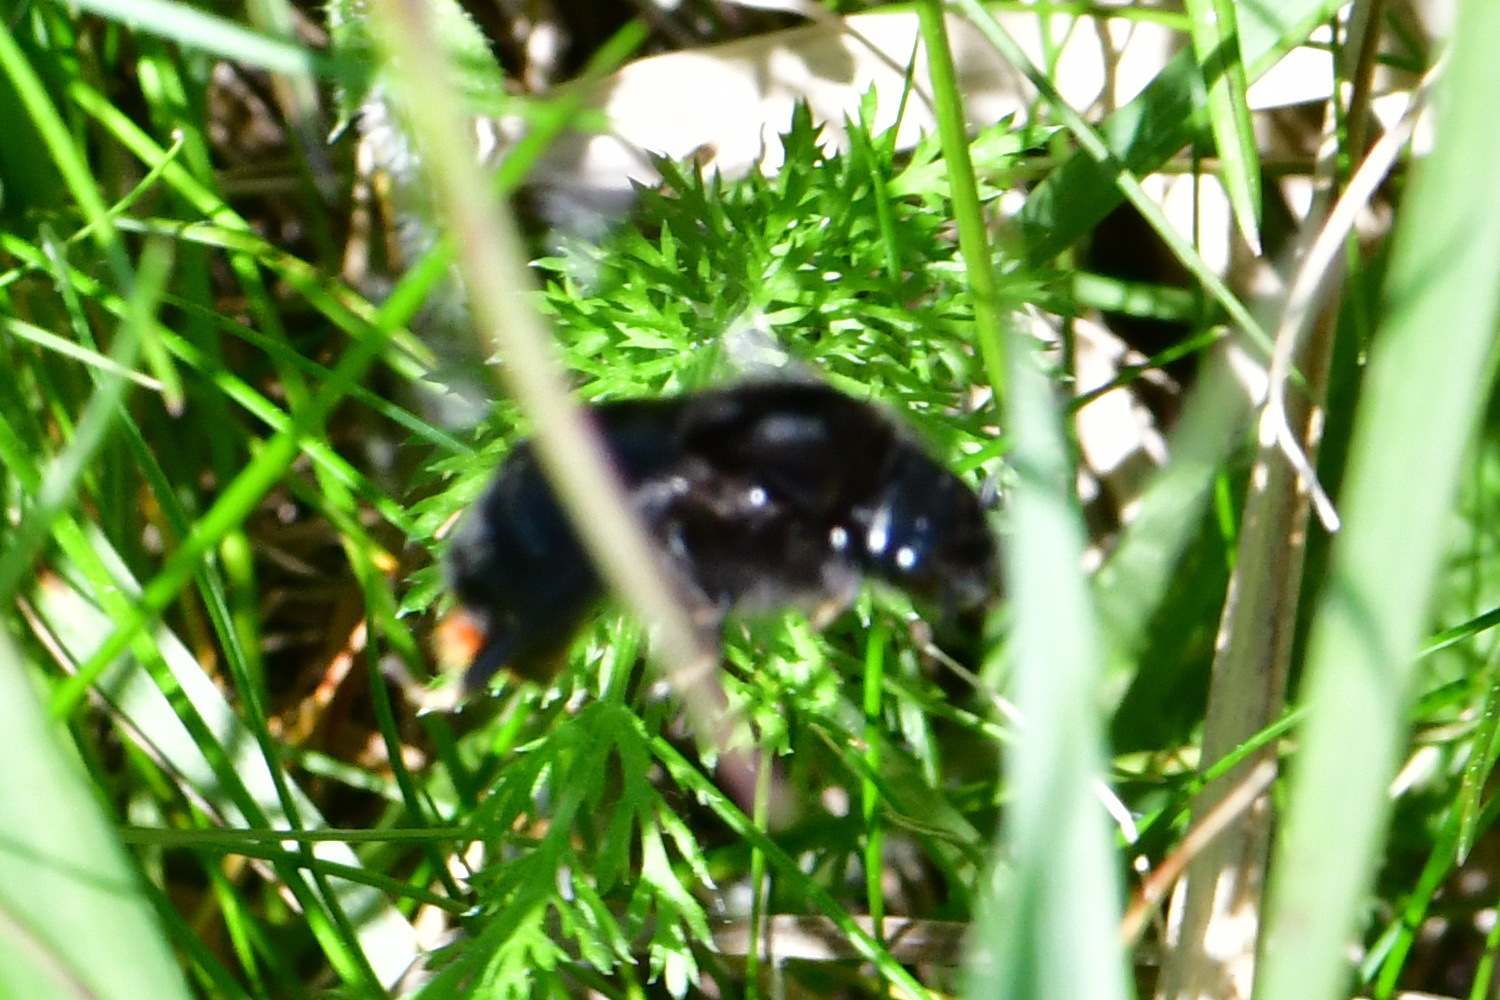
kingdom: Animalia
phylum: Arthropoda
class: Insecta
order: Hymenoptera
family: Apidae
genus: Bombus
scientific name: Bombus rupestris
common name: Hill cuckoo-bee
